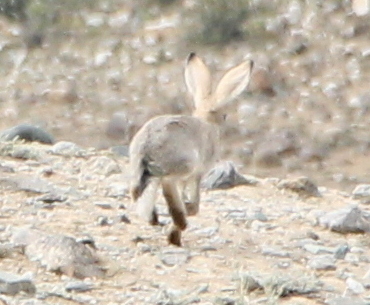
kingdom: Animalia
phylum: Chordata
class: Mammalia
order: Lagomorpha
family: Leporidae
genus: Lepus
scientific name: Lepus tibetanus
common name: Desert hare
